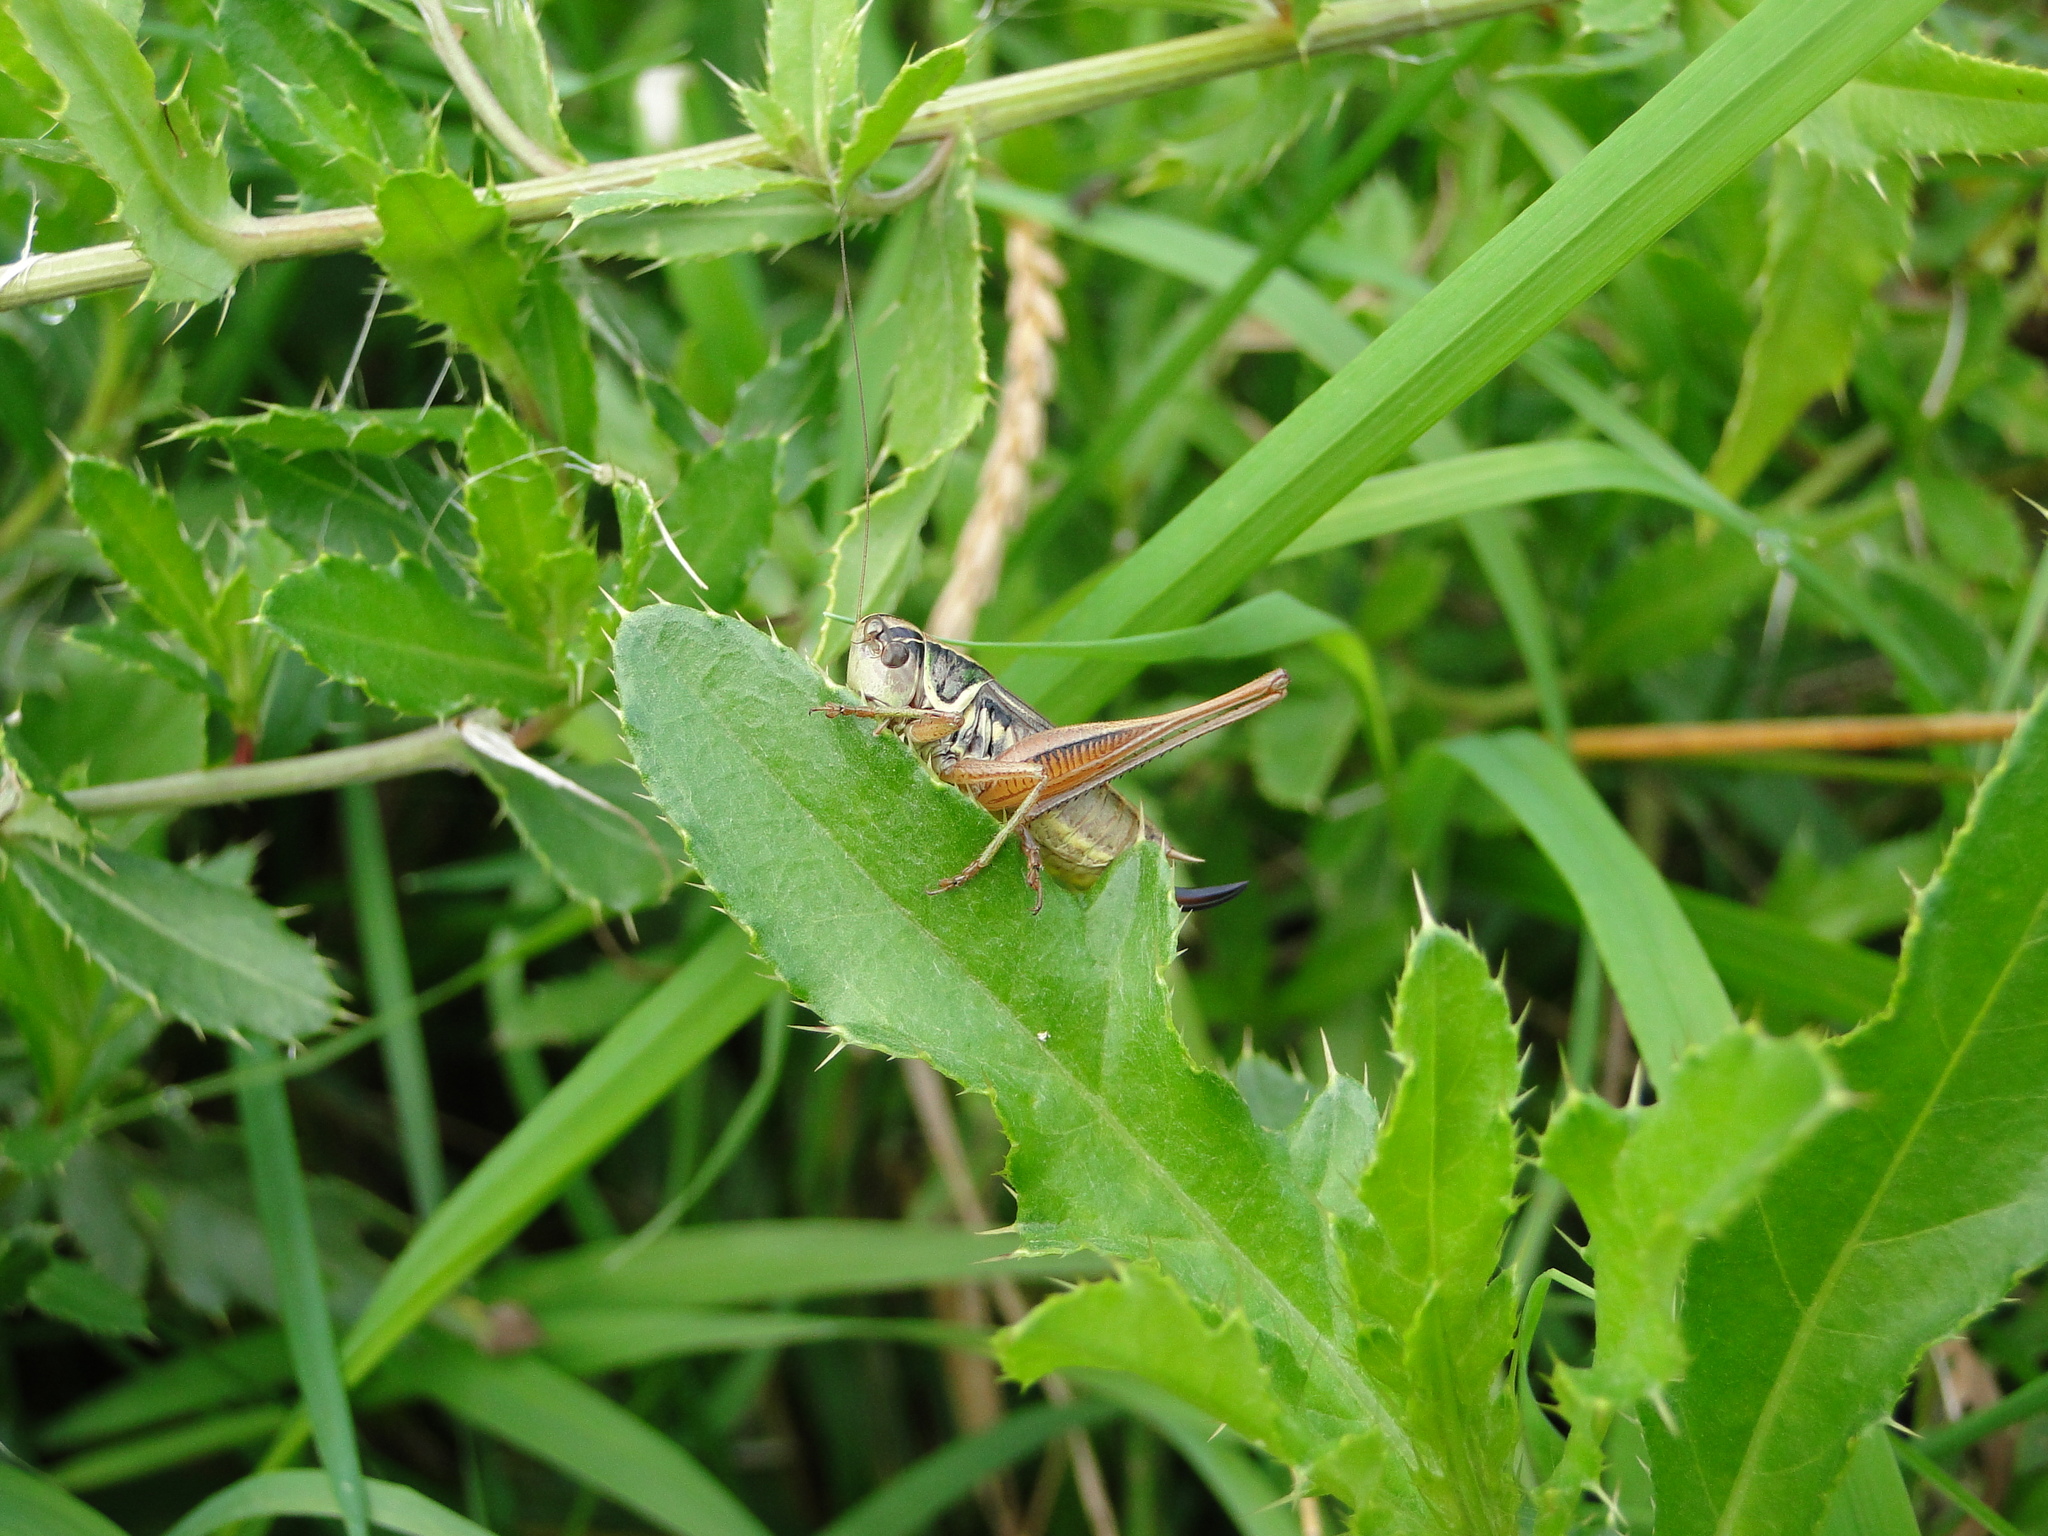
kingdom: Animalia
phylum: Arthropoda
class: Insecta
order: Orthoptera
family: Tettigoniidae
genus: Roeseliana
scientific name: Roeseliana roeselii
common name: Roesel's bush cricket
